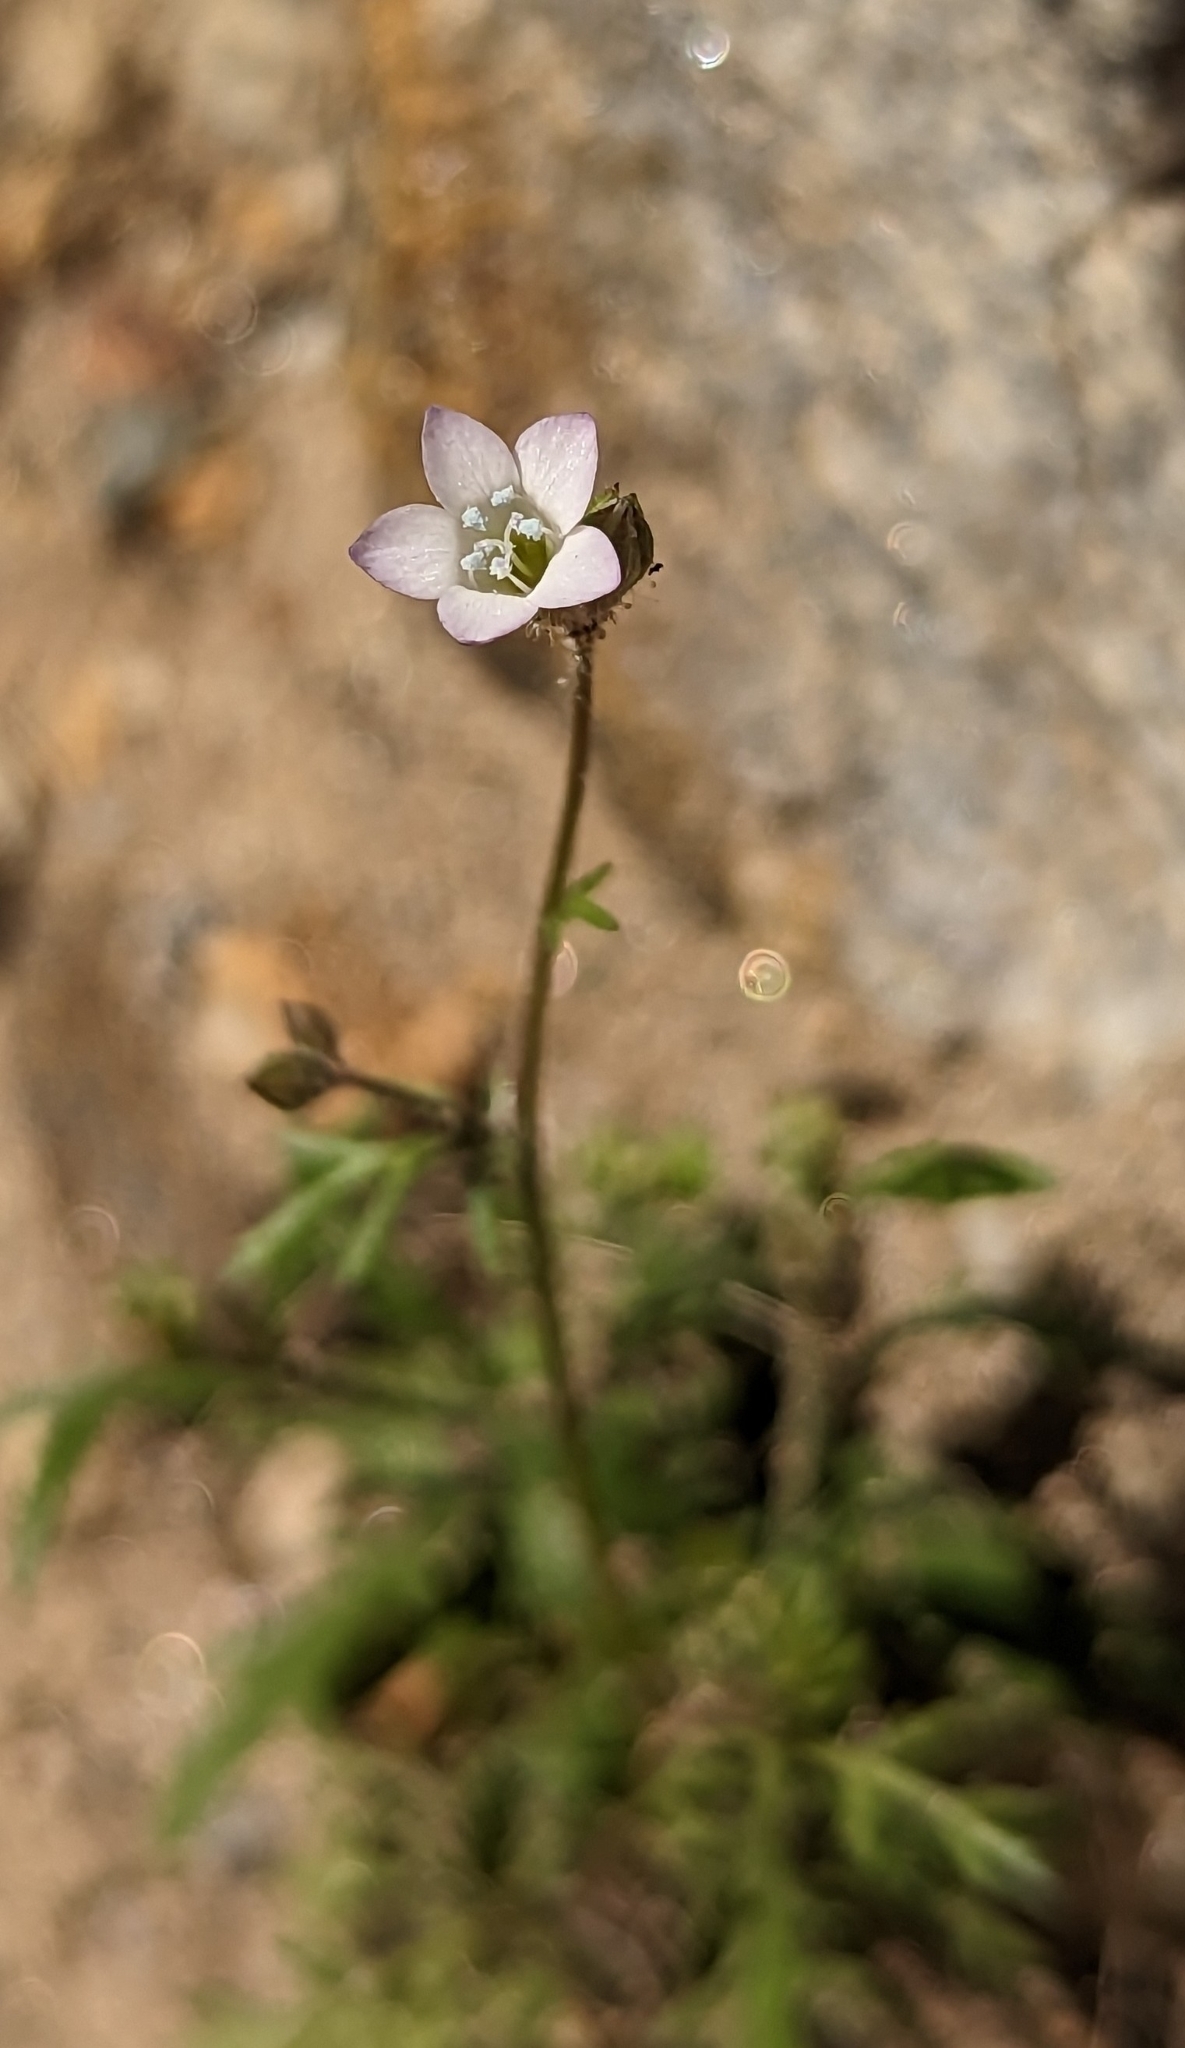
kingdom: Plantae
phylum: Tracheophyta
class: Magnoliopsida
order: Ericales
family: Polemoniaceae
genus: Gilia
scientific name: Gilia stellata
